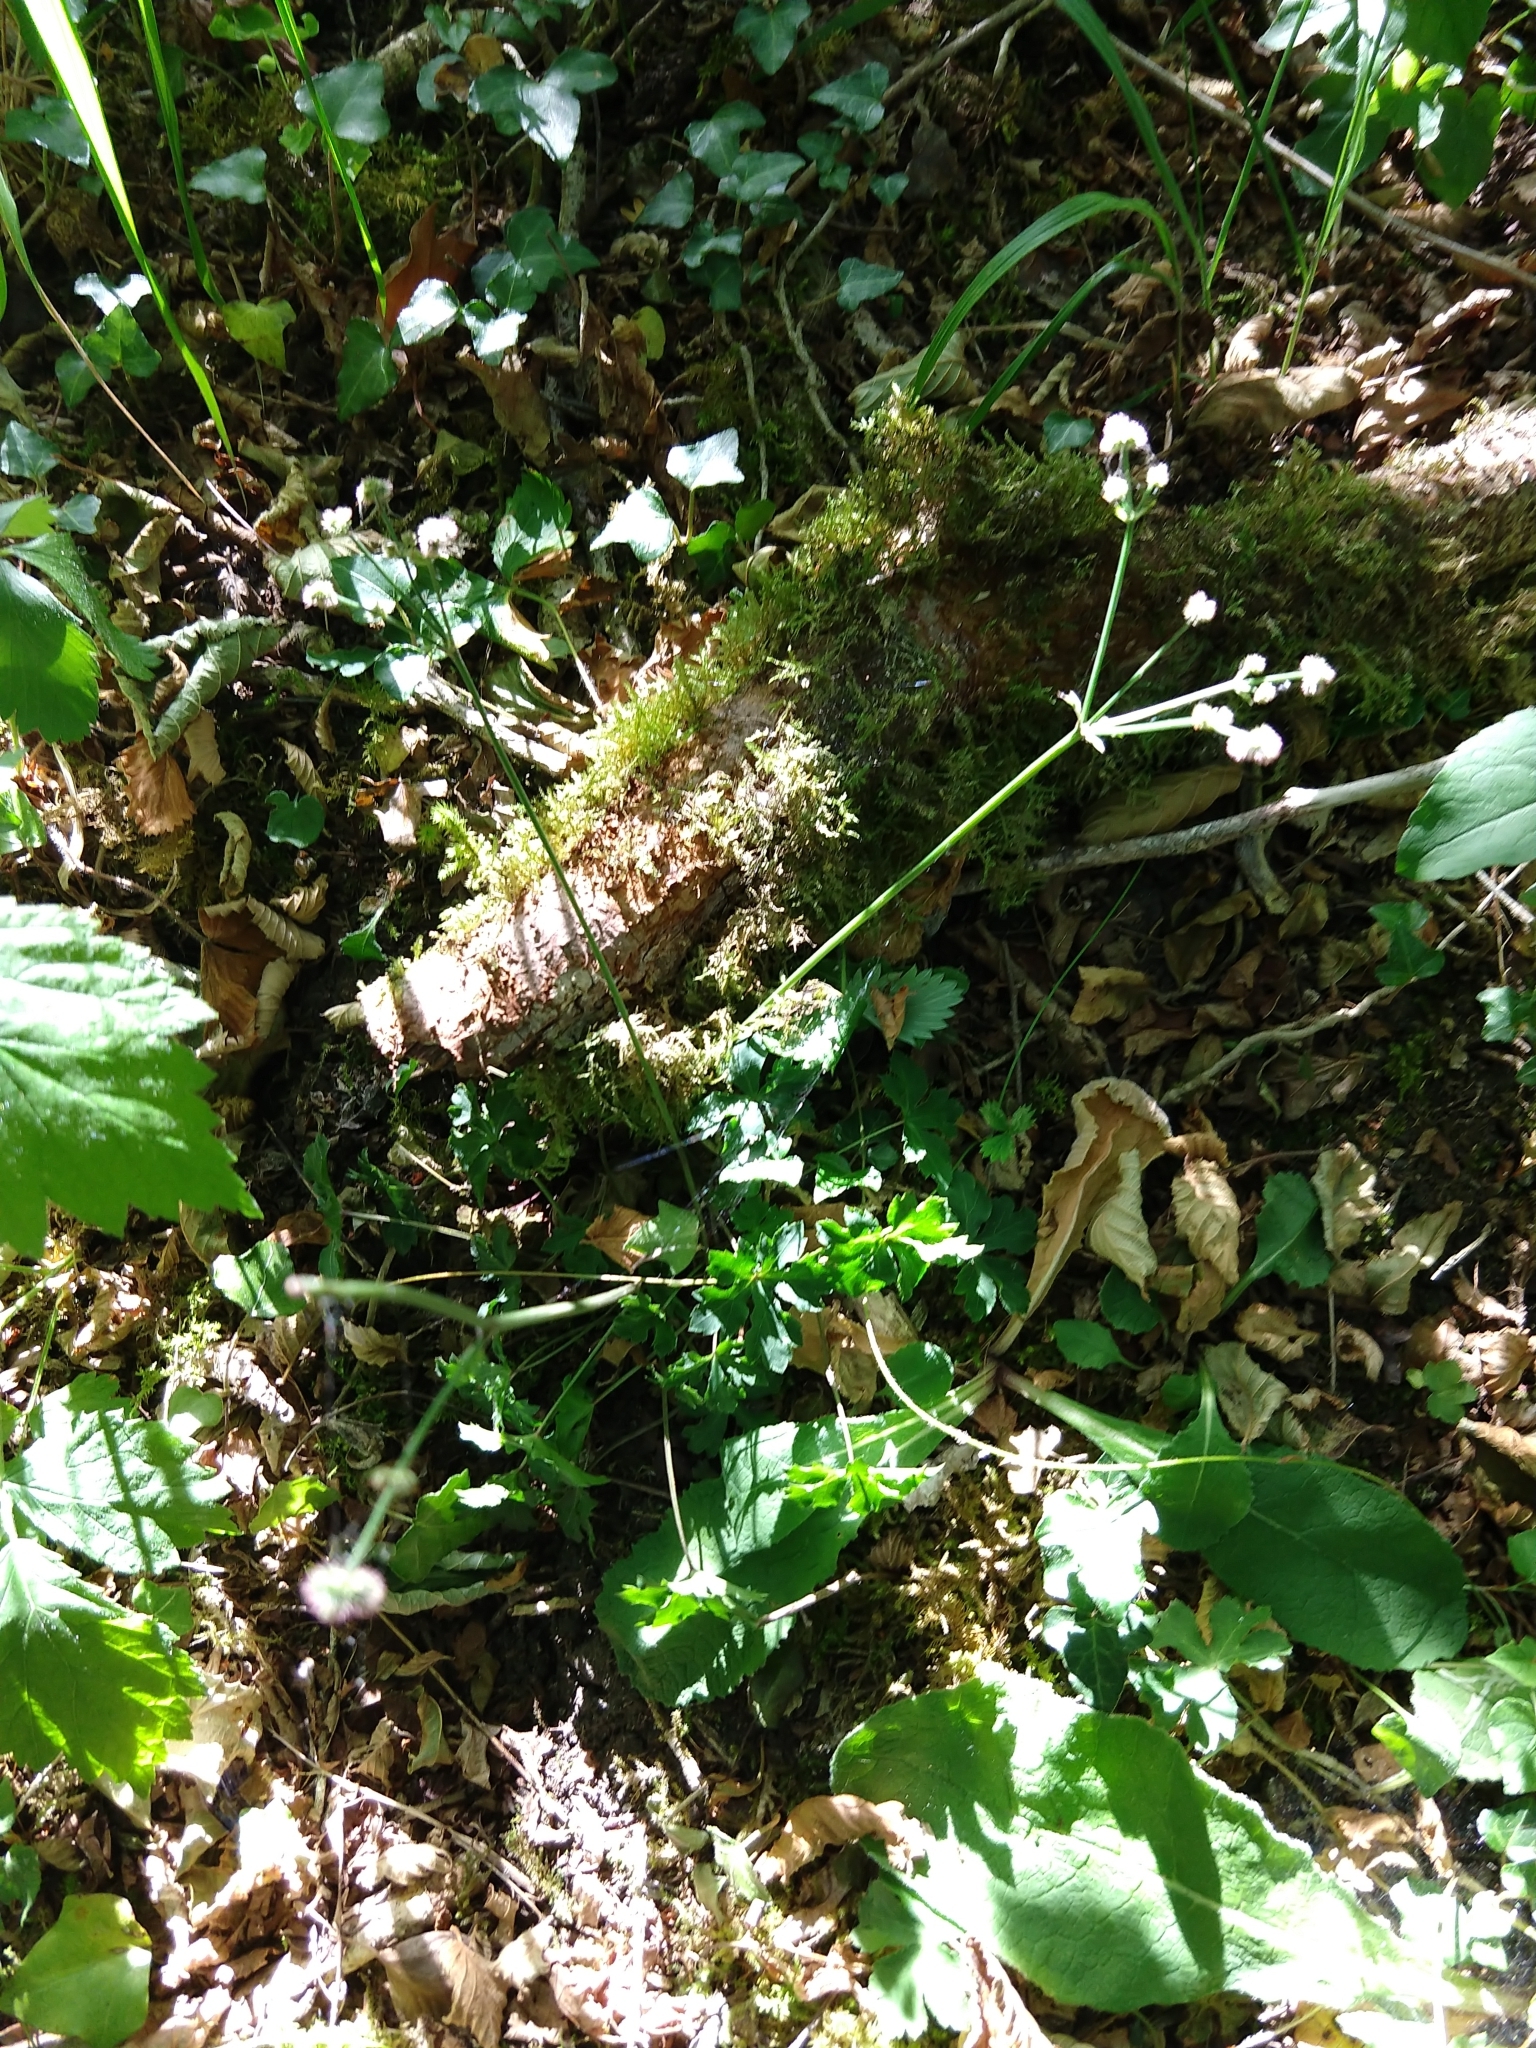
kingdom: Plantae
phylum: Tracheophyta
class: Magnoliopsida
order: Apiales
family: Apiaceae
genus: Sanicula
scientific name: Sanicula europaea
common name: Sanicle
